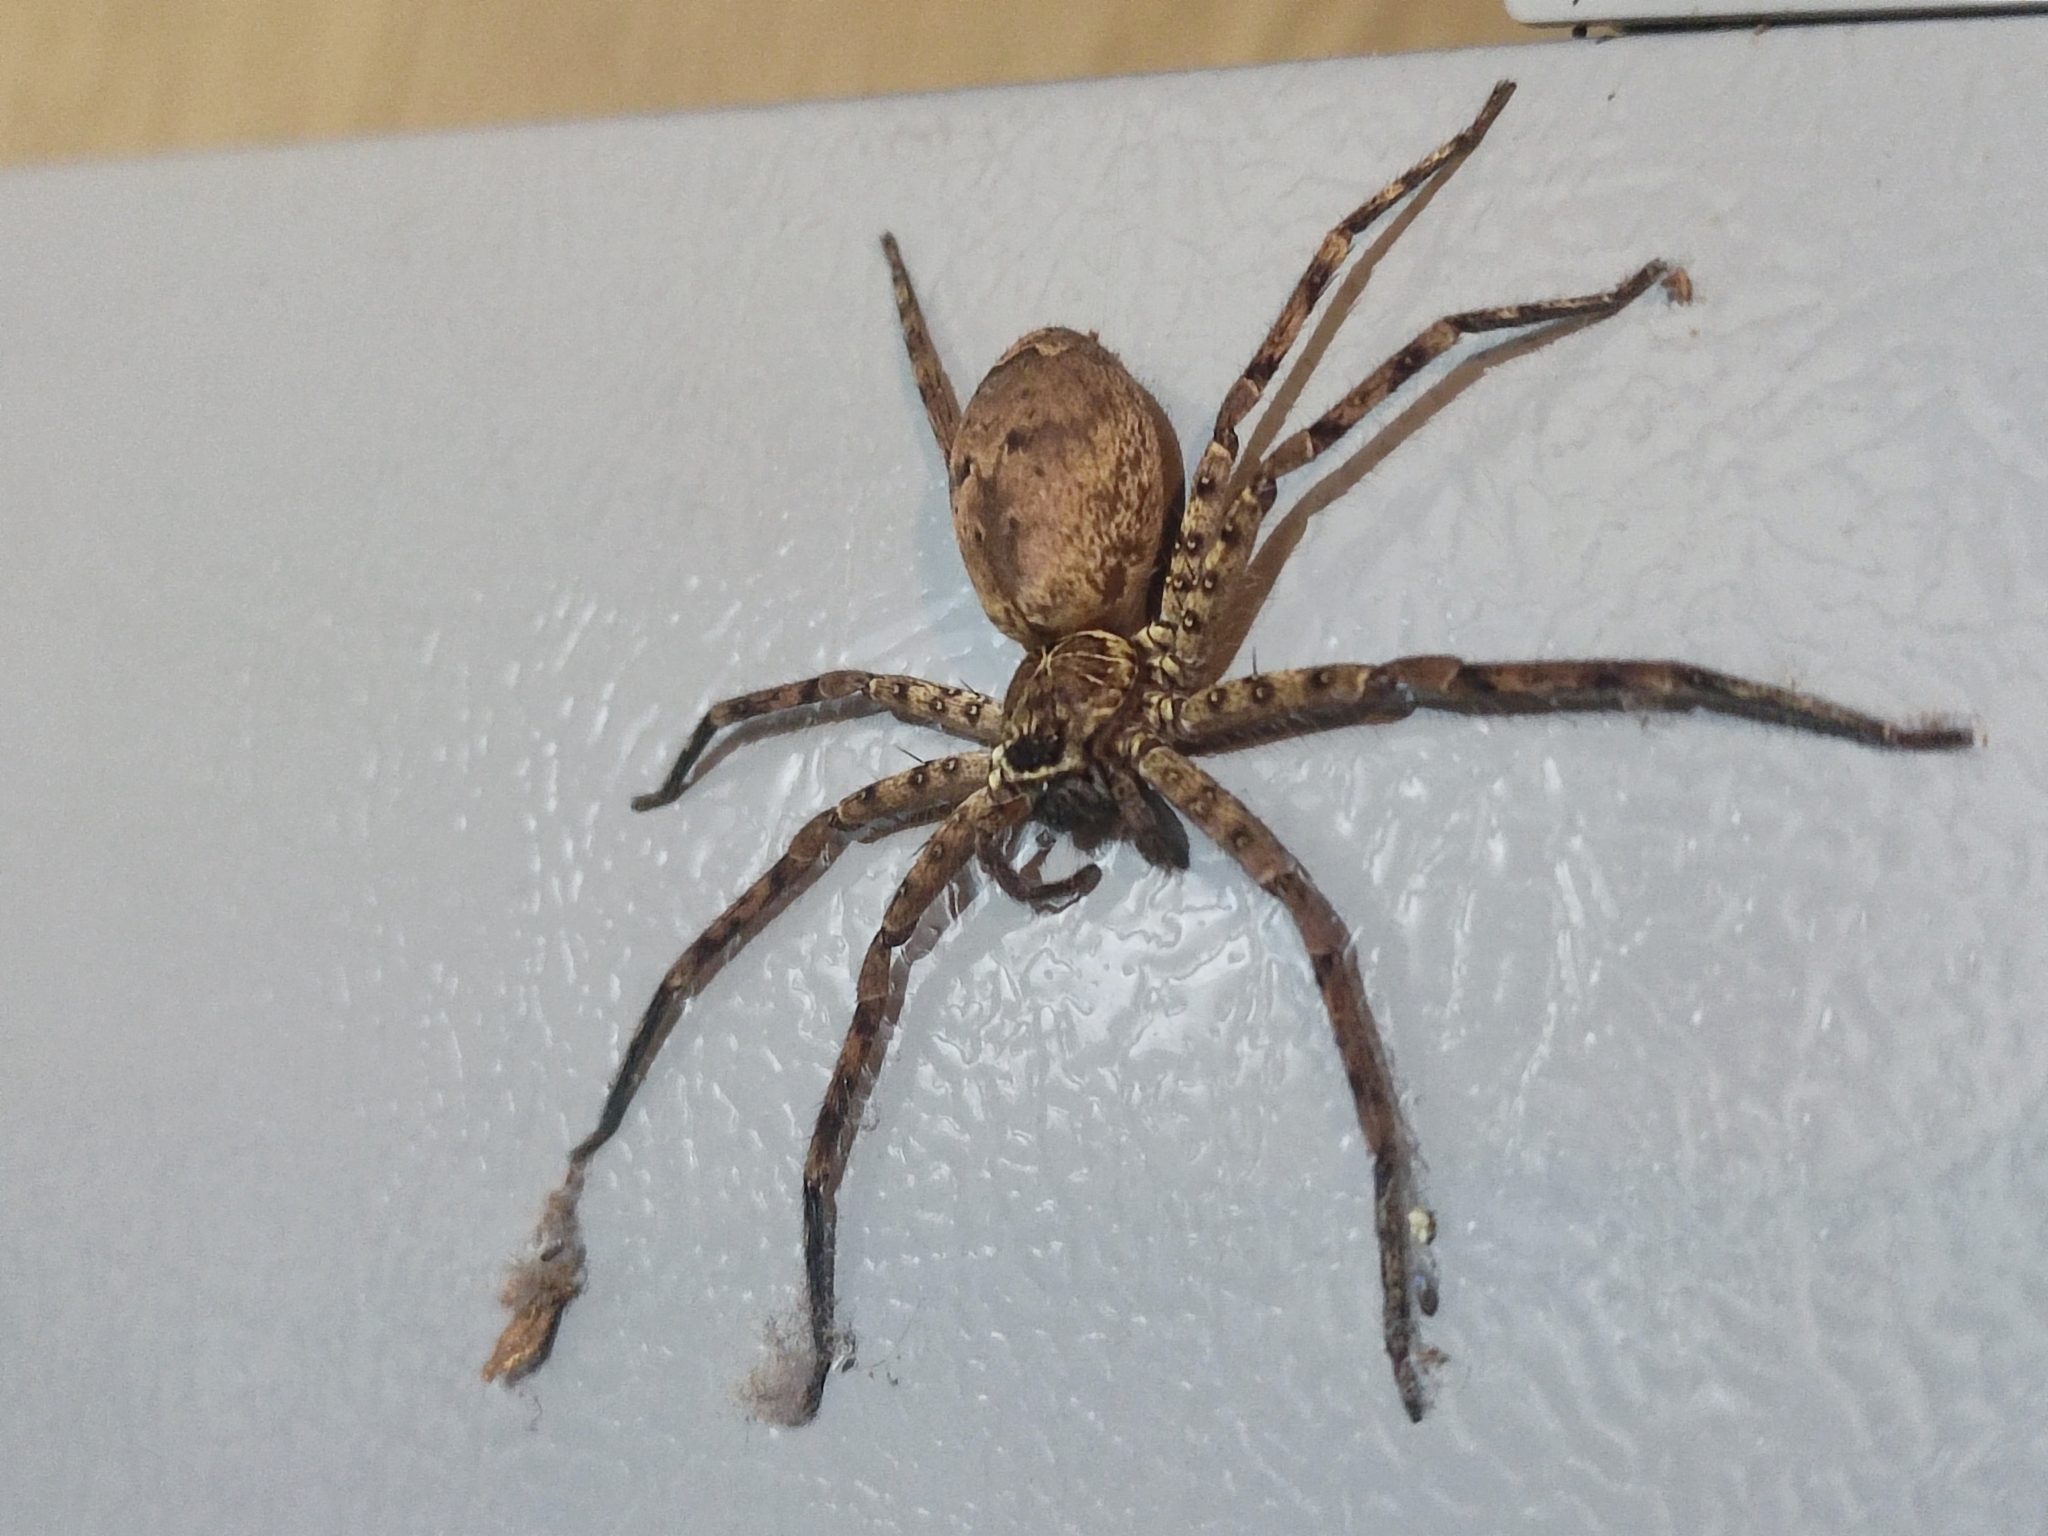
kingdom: Animalia
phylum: Arthropoda
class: Arachnida
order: Araneae
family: Sparassidae
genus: Heteropoda
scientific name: Heteropoda venatoria
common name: Huntsman spider
